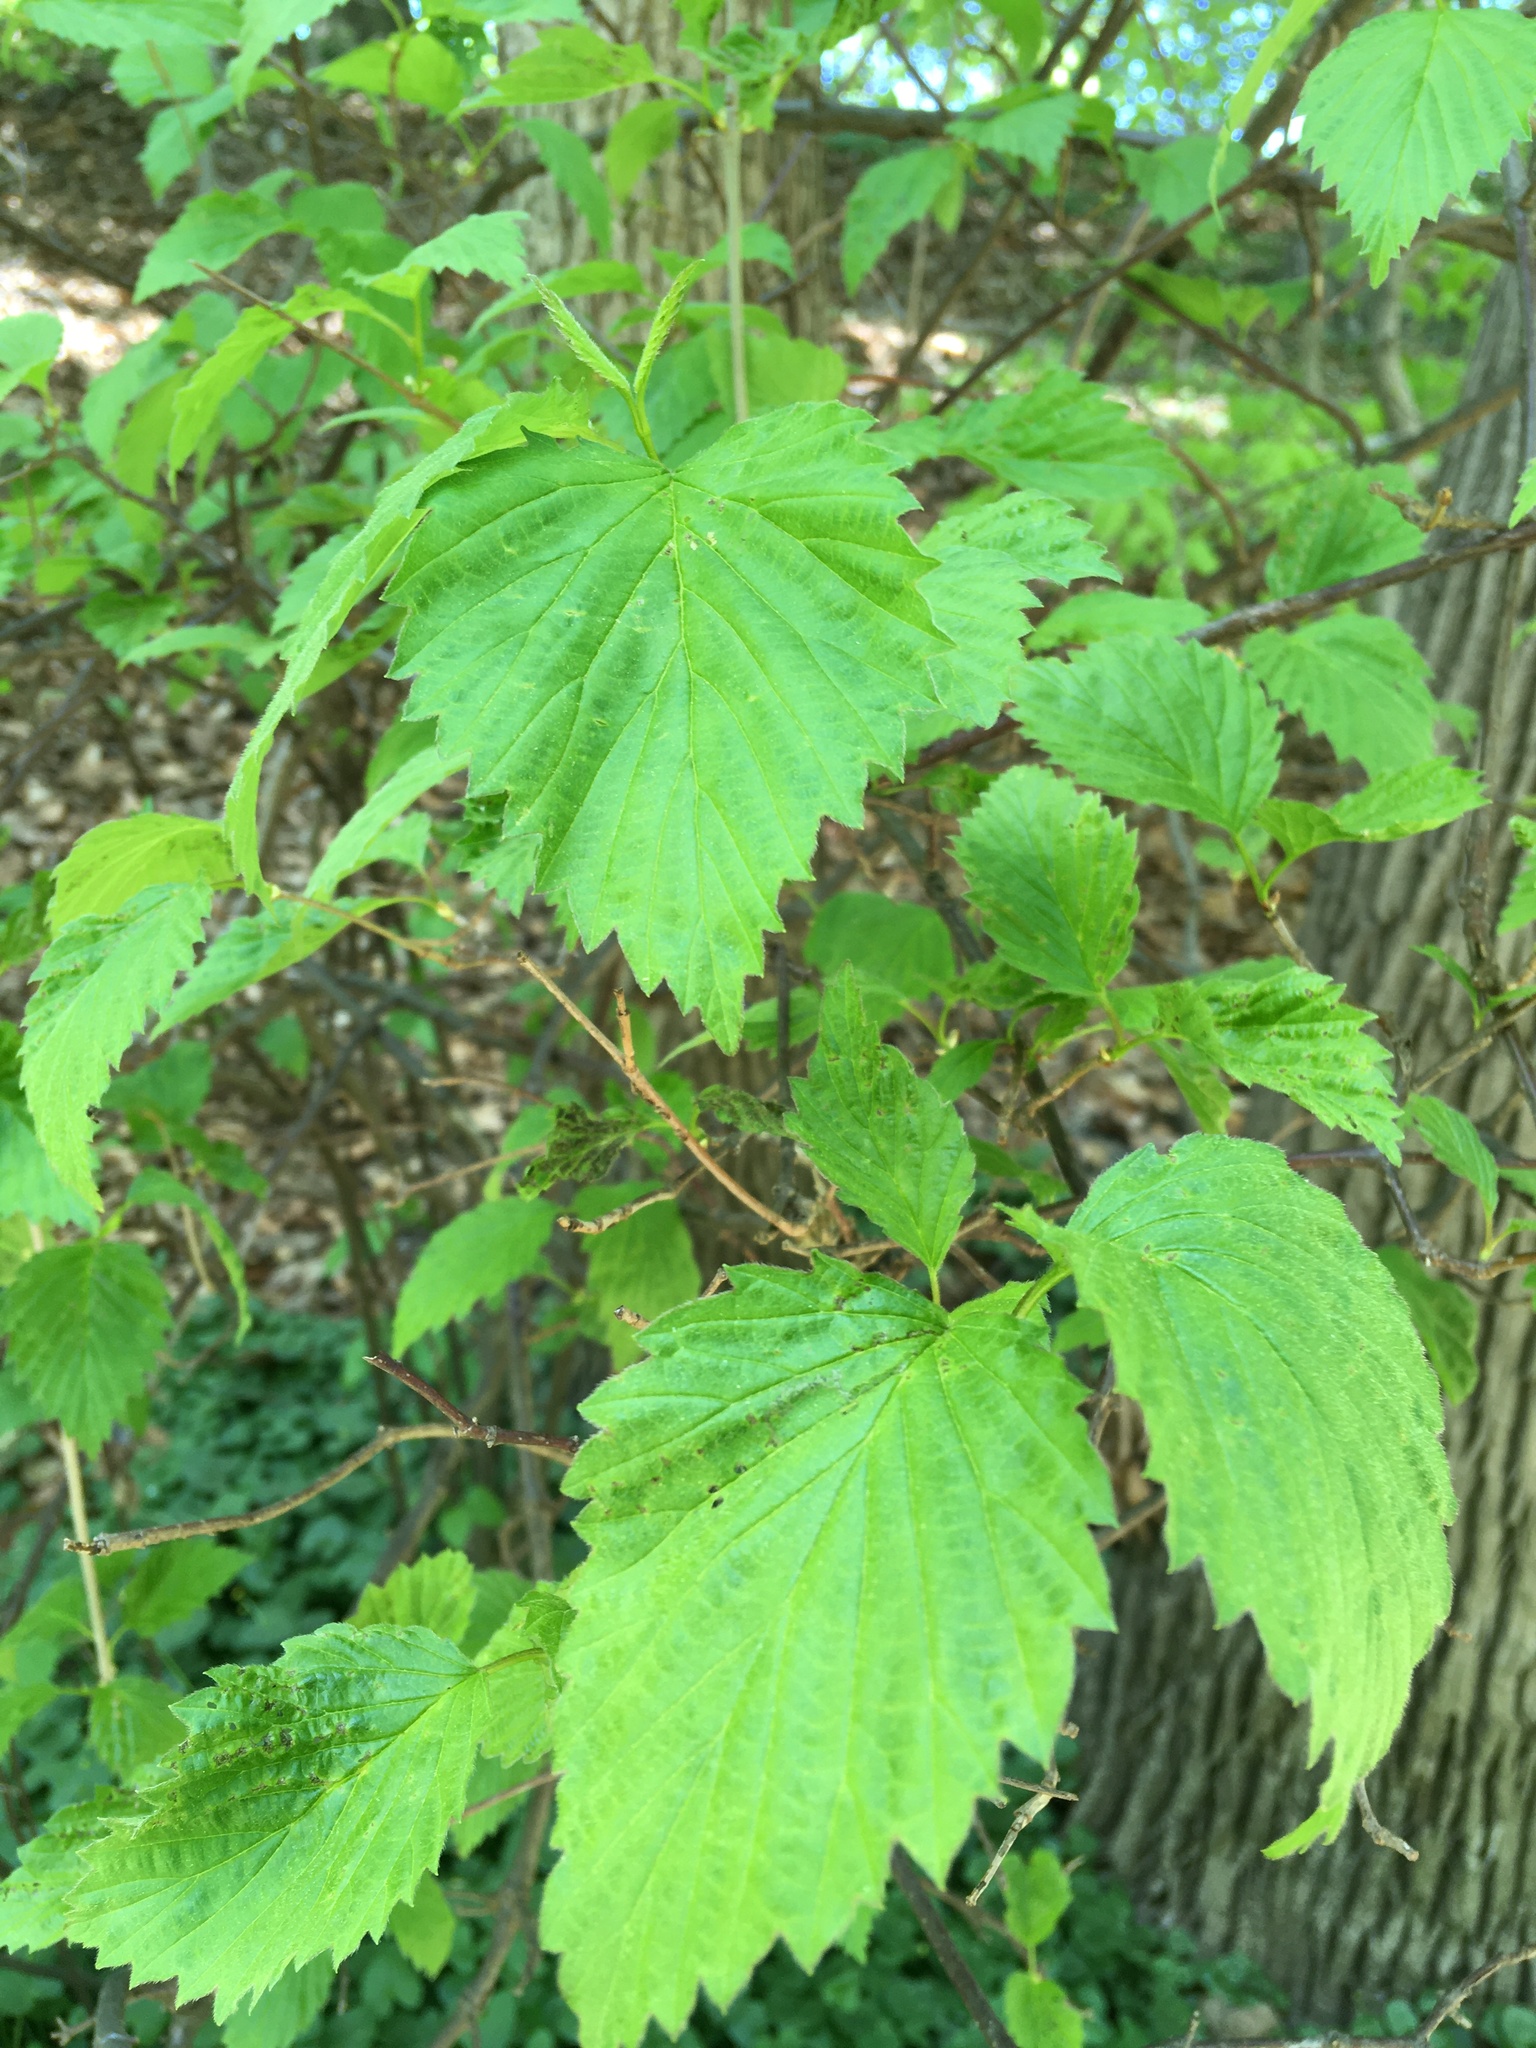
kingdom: Plantae
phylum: Tracheophyta
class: Magnoliopsida
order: Dipsacales
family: Viburnaceae
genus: Viburnum
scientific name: Viburnum recognitum
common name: Northern arrow-wood
